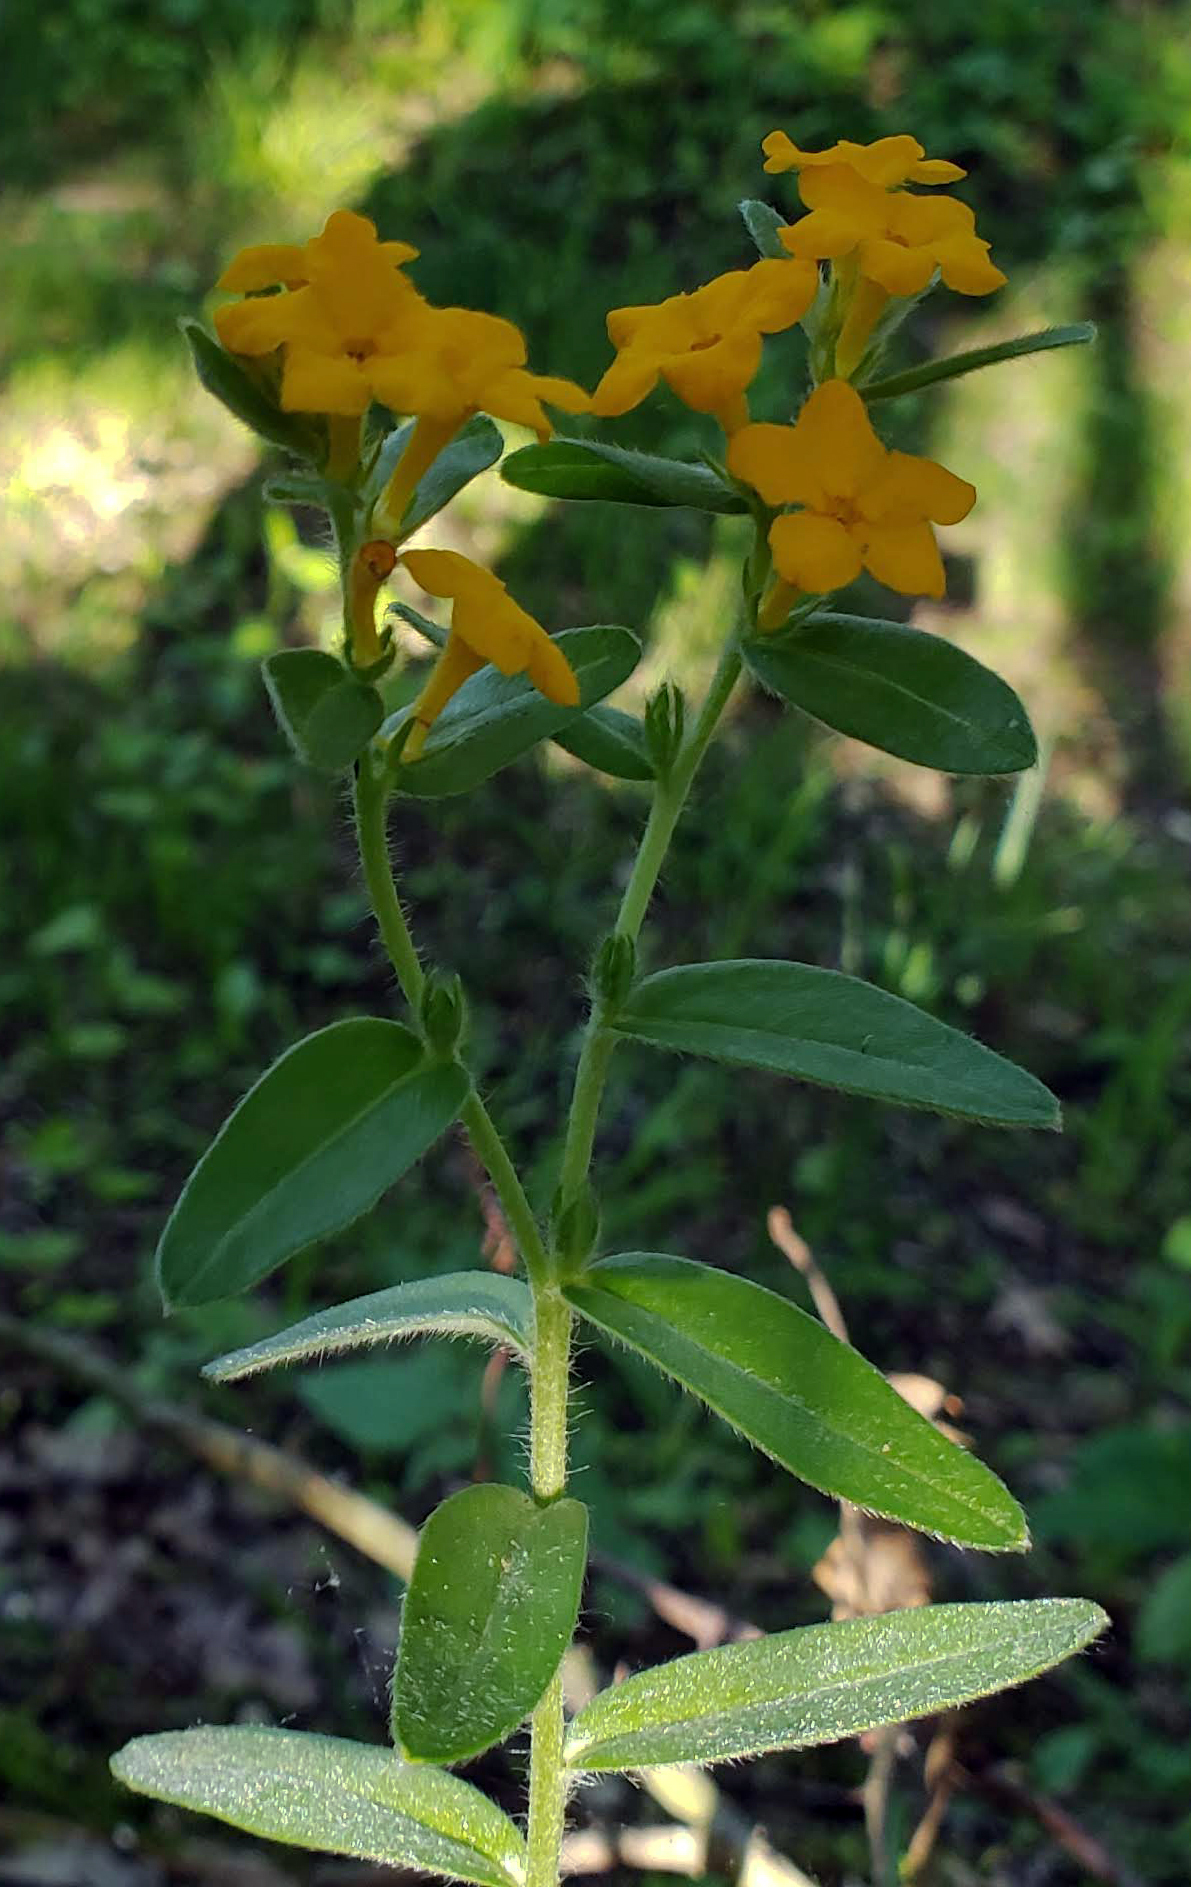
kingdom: Plantae
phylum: Tracheophyta
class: Magnoliopsida
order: Boraginales
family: Boraginaceae
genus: Lithospermum
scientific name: Lithospermum canescens
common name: Hoary puccoon
